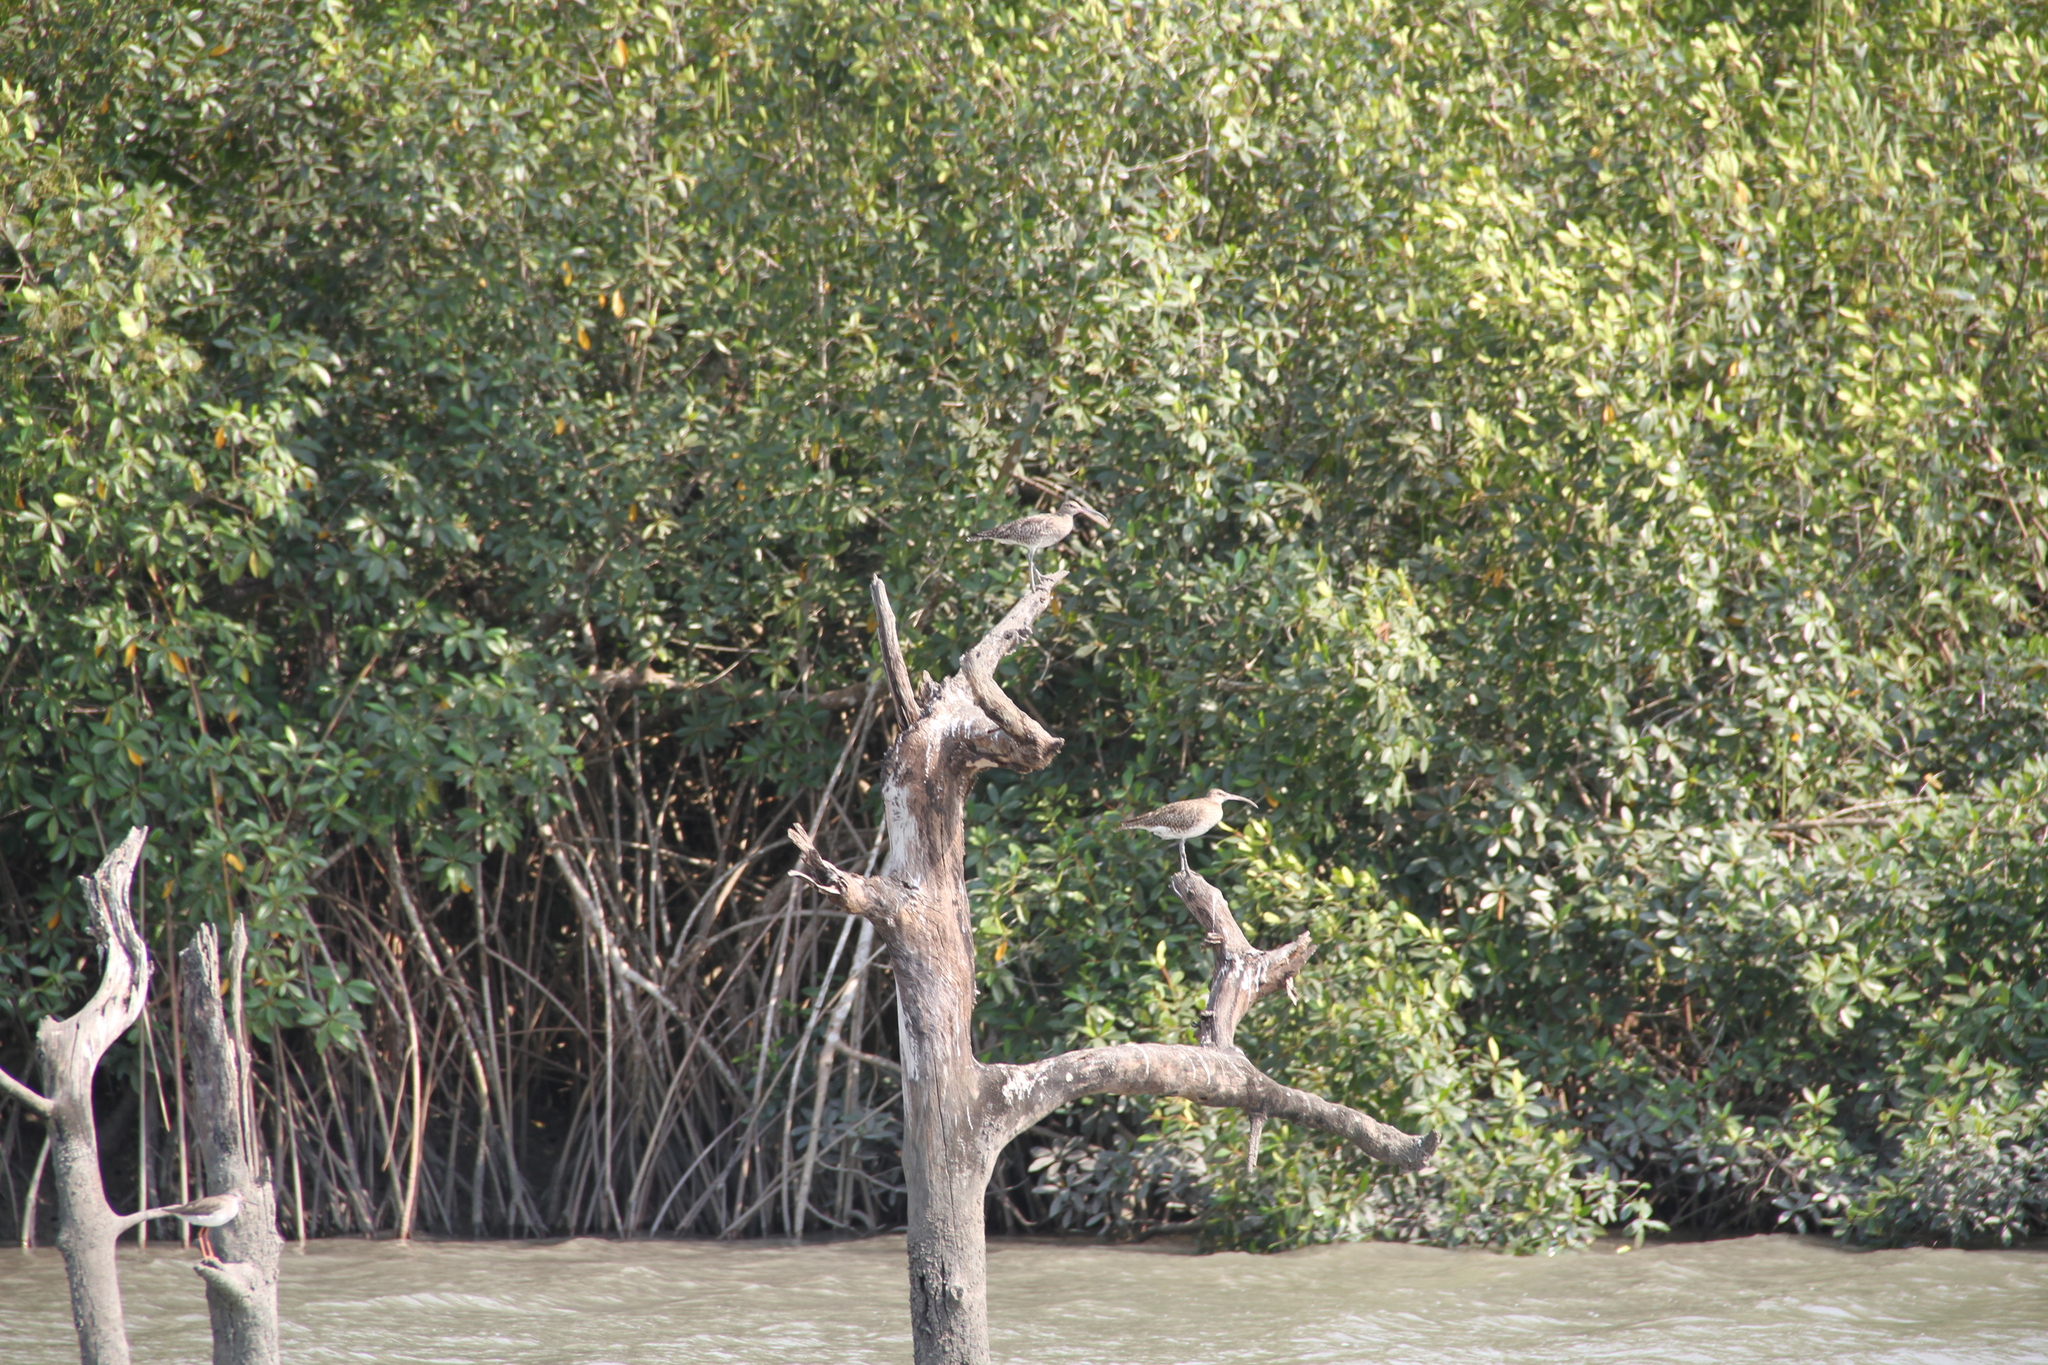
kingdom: Animalia
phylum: Chordata
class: Aves
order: Charadriiformes
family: Scolopacidae
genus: Numenius
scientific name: Numenius phaeopus
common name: Whimbrel
